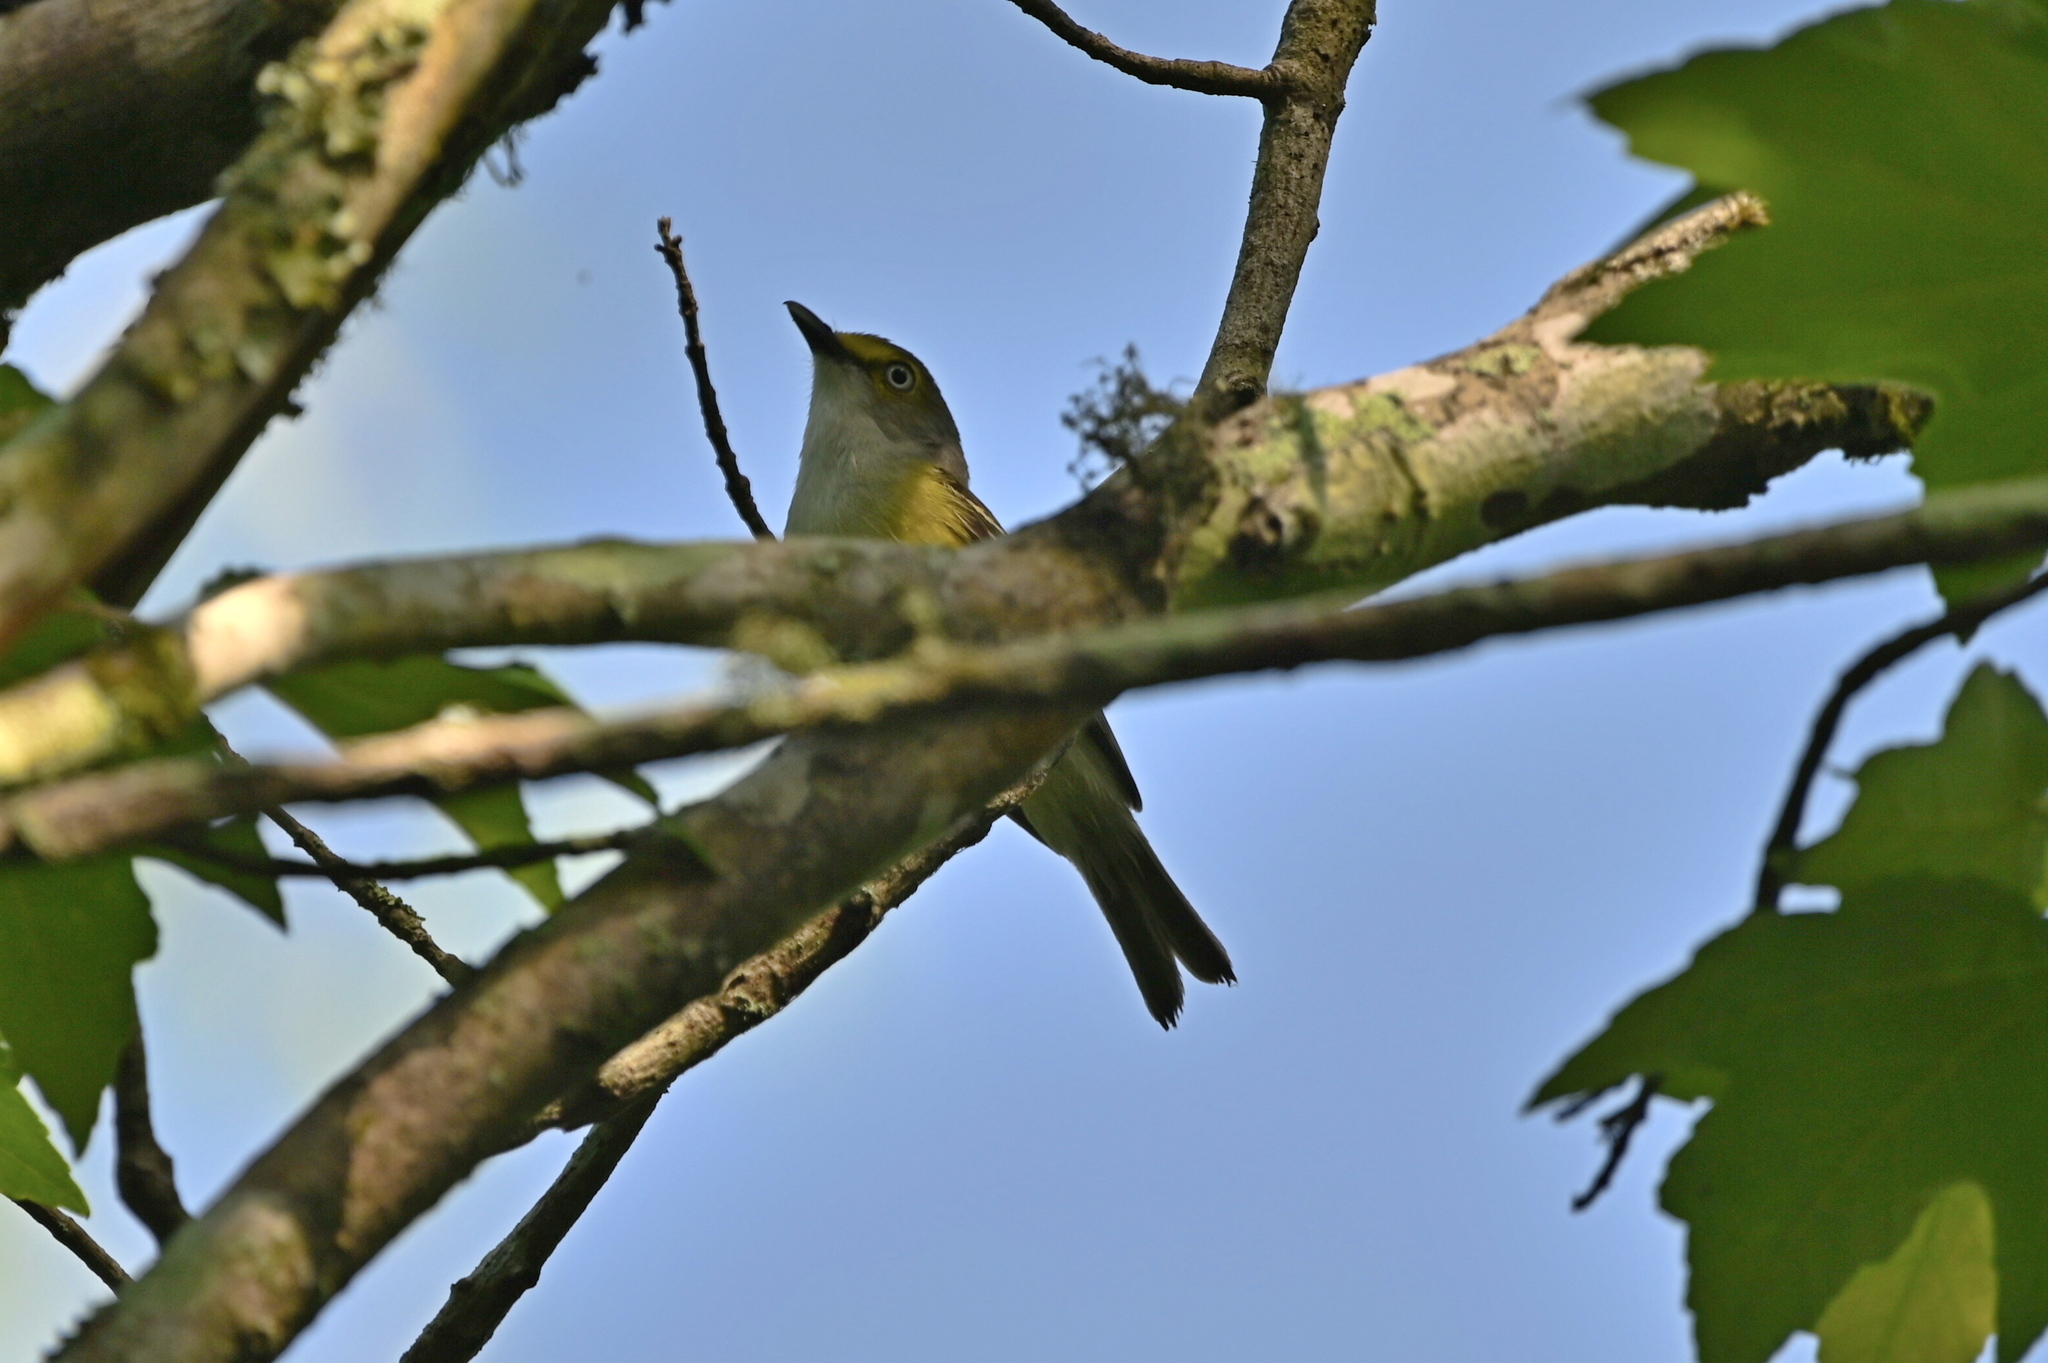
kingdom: Animalia
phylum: Chordata
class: Aves
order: Passeriformes
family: Vireonidae
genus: Vireo
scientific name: Vireo griseus
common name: White-eyed vireo
